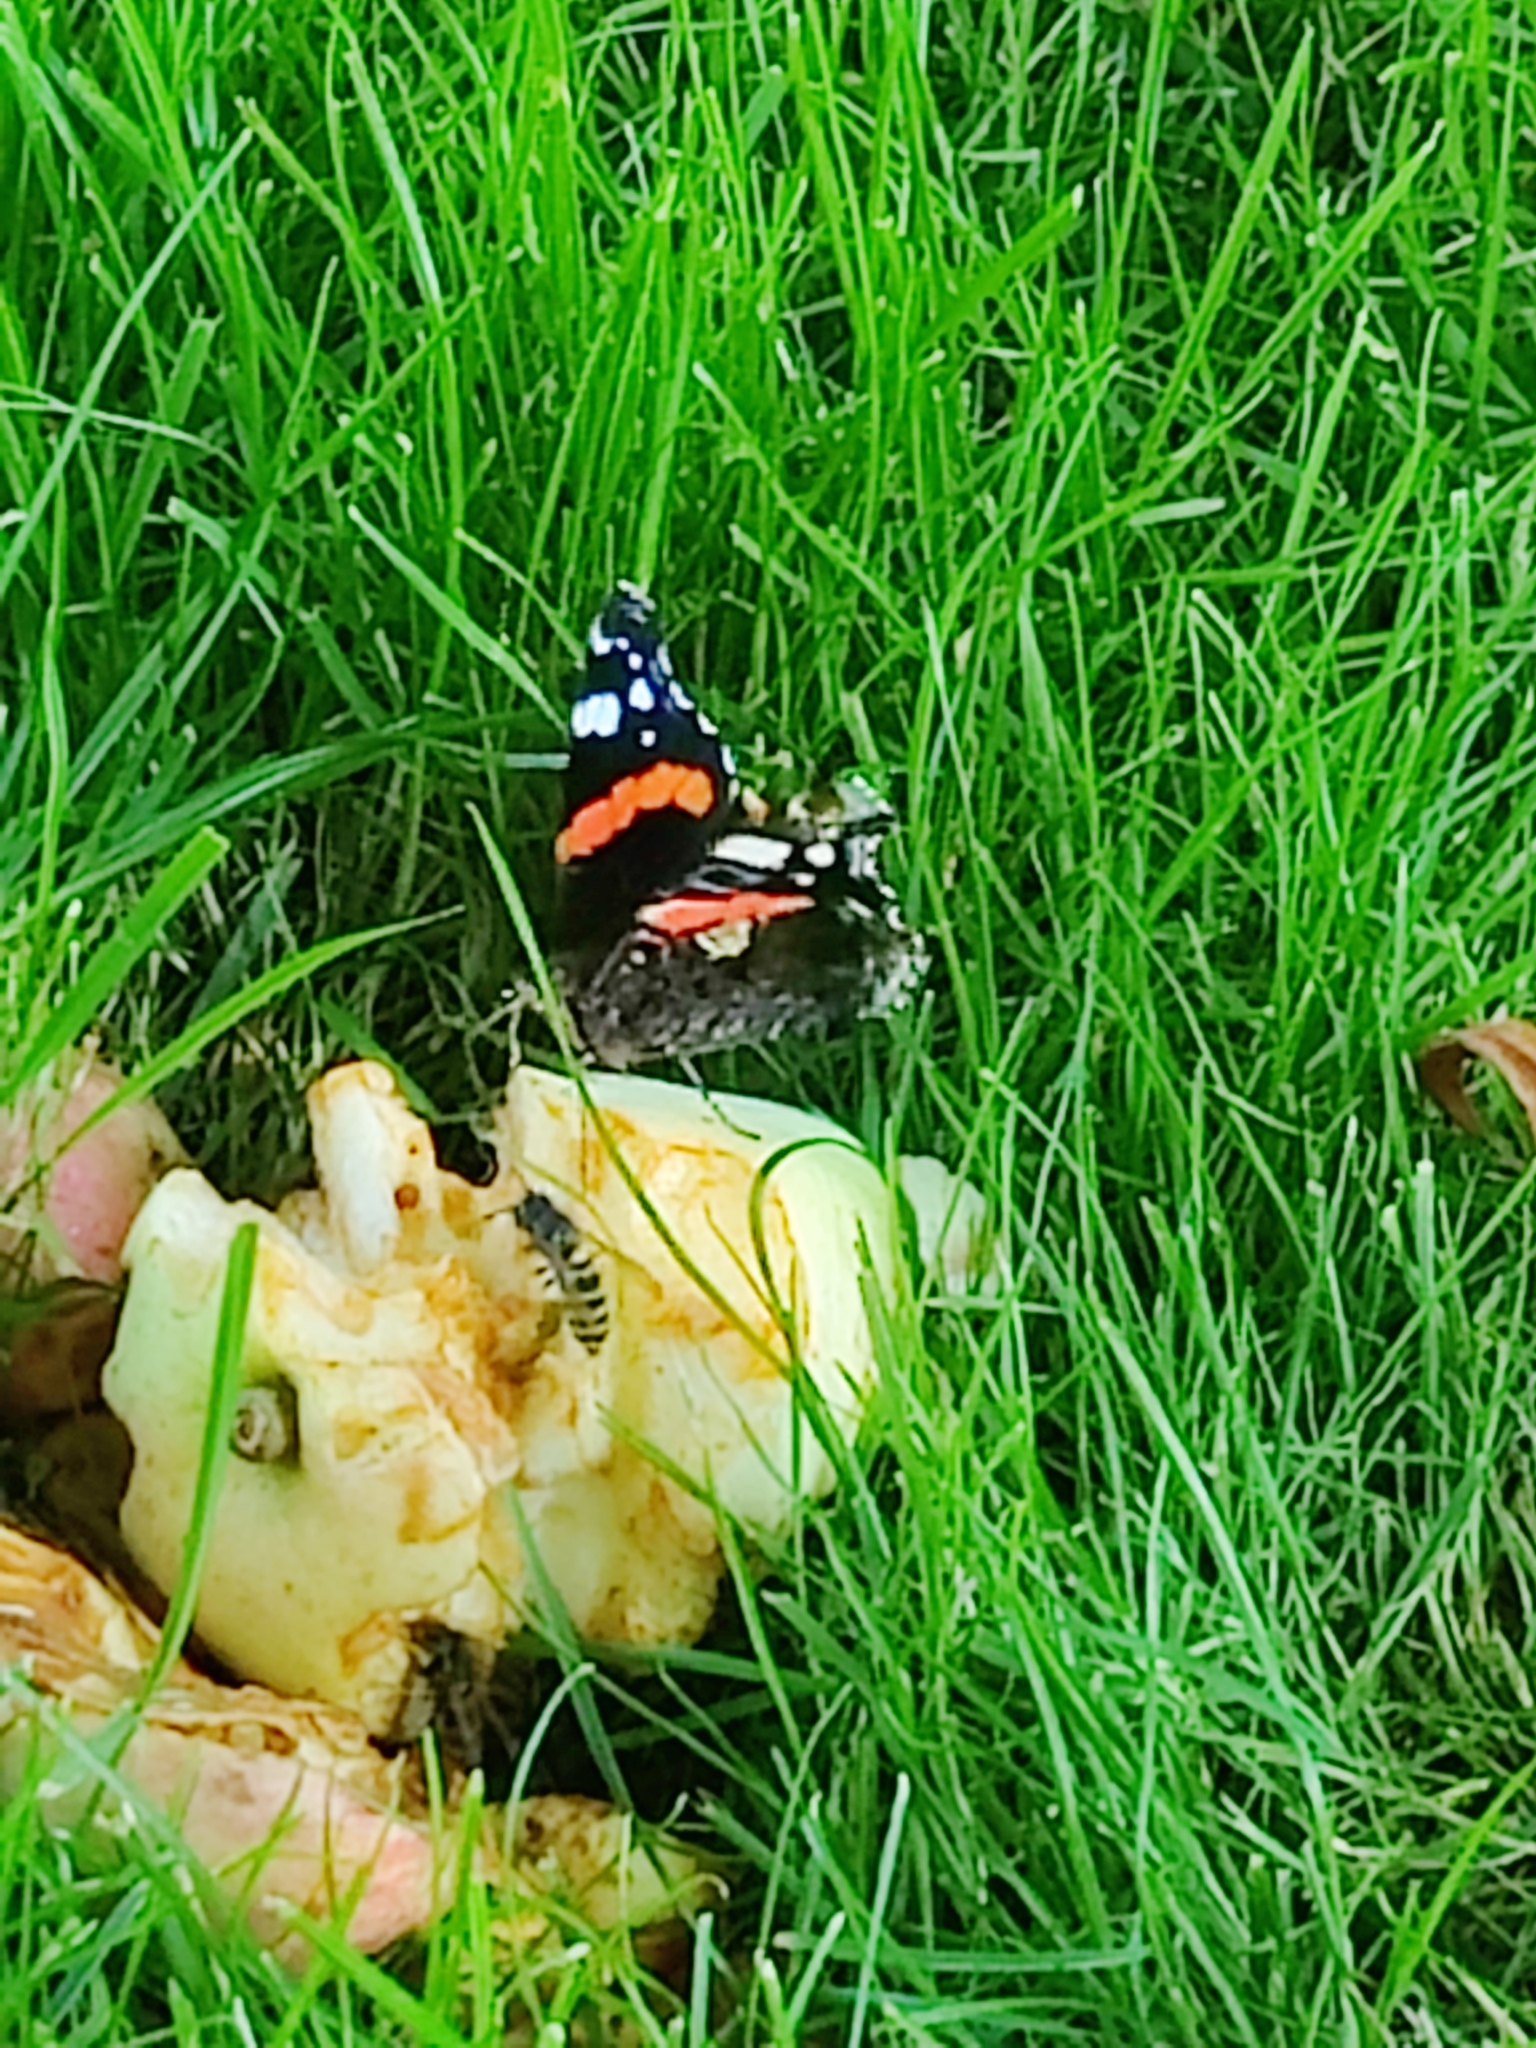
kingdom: Animalia
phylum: Arthropoda
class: Insecta
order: Lepidoptera
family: Nymphalidae
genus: Vanessa
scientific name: Vanessa atalanta
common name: Red admiral
